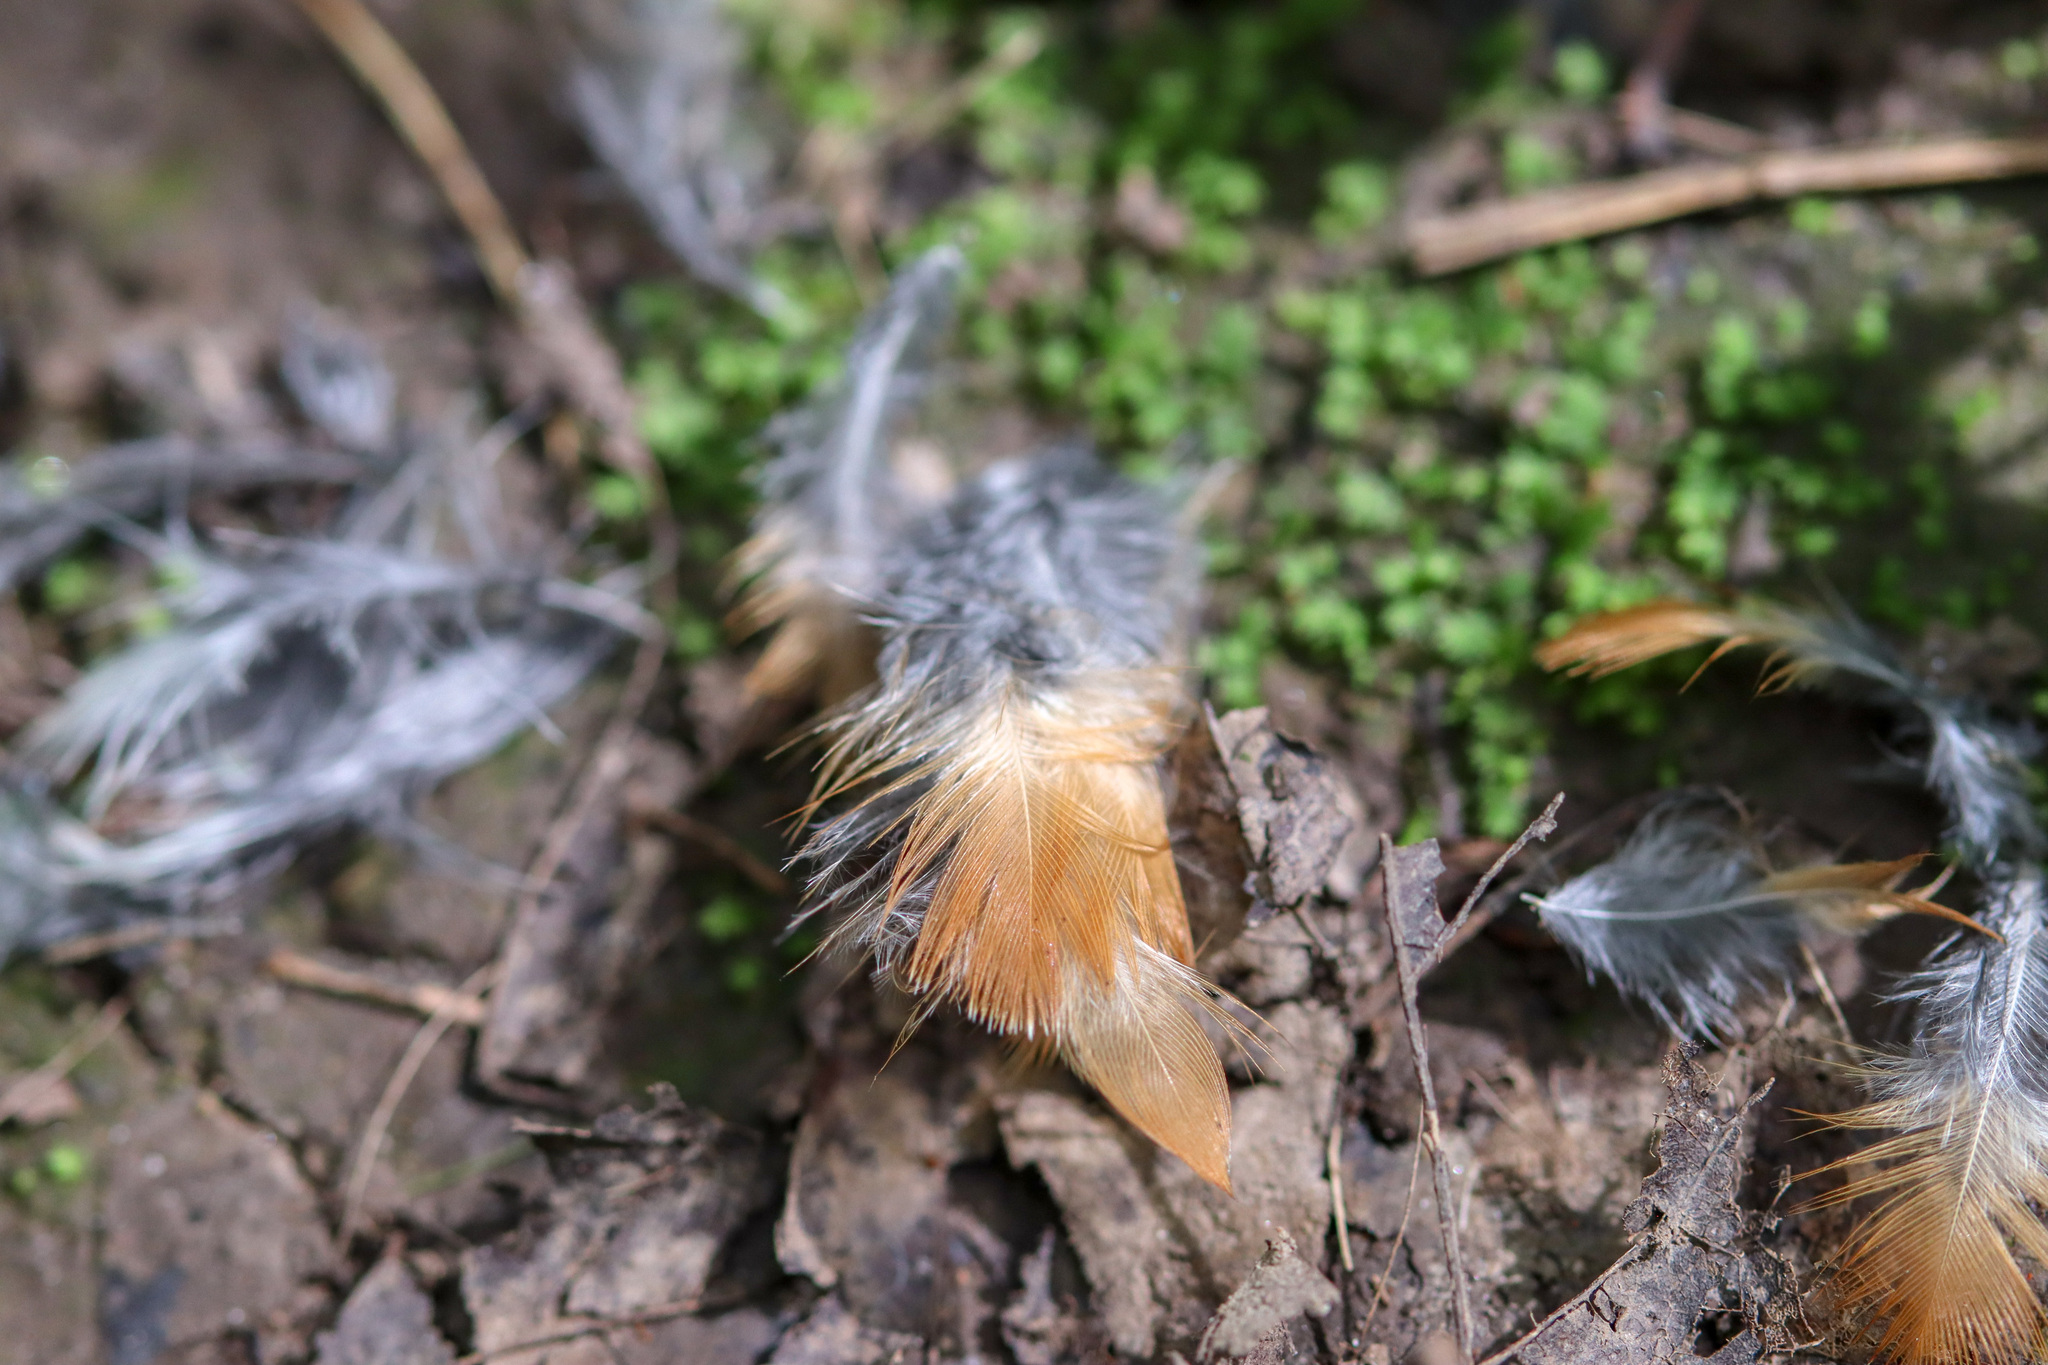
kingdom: Animalia
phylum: Chordata
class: Aves
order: Passeriformes
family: Turdidae
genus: Turdus
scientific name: Turdus migratorius
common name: American robin
